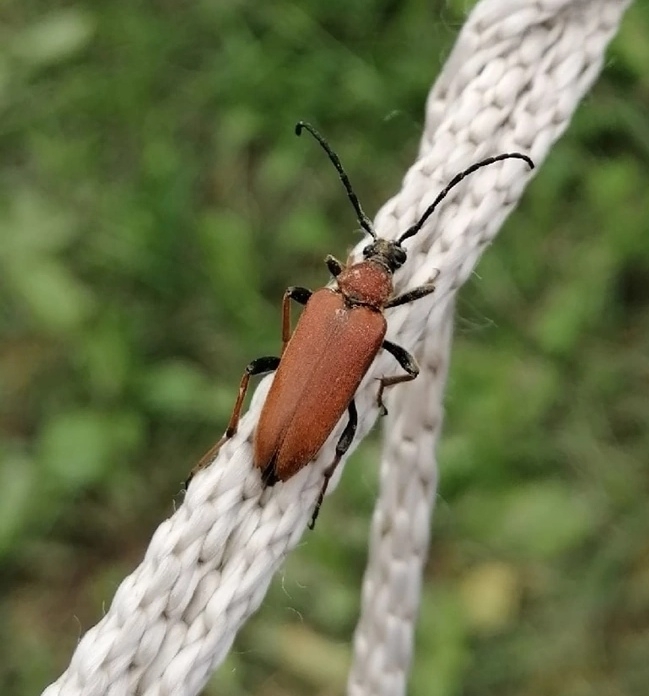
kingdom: Animalia
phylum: Arthropoda
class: Insecta
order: Coleoptera
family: Cerambycidae
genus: Stictoleptura
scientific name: Stictoleptura rubra
